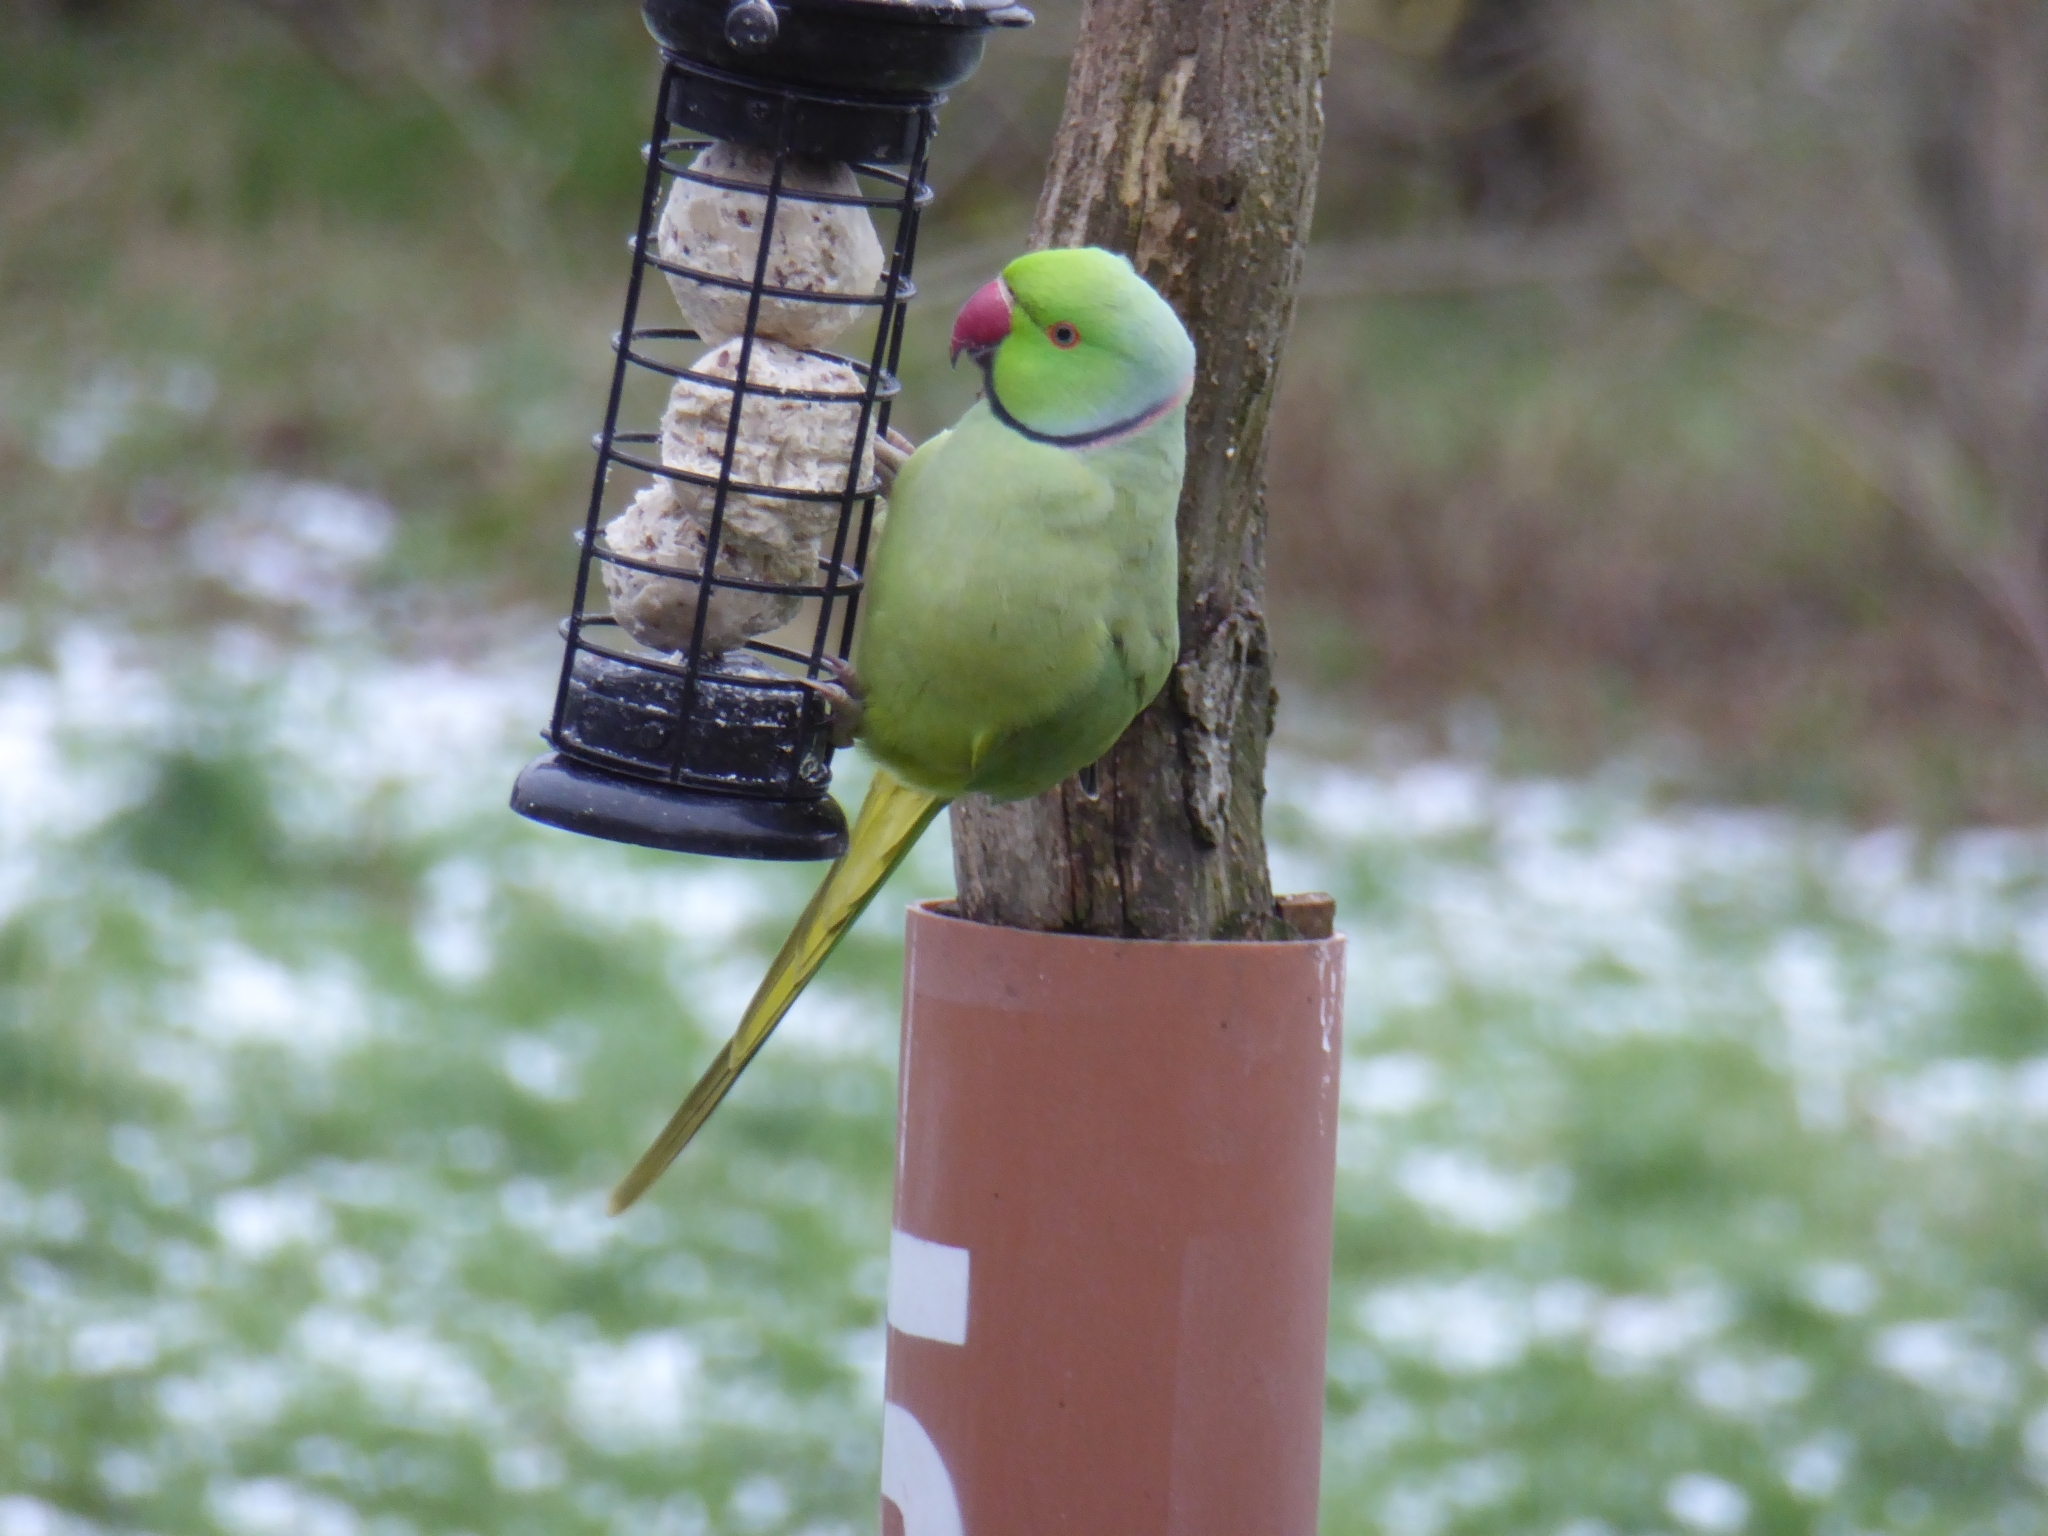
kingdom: Animalia
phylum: Chordata
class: Aves
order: Psittaciformes
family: Psittacidae
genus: Psittacula
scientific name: Psittacula krameri
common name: Rose-ringed parakeet
